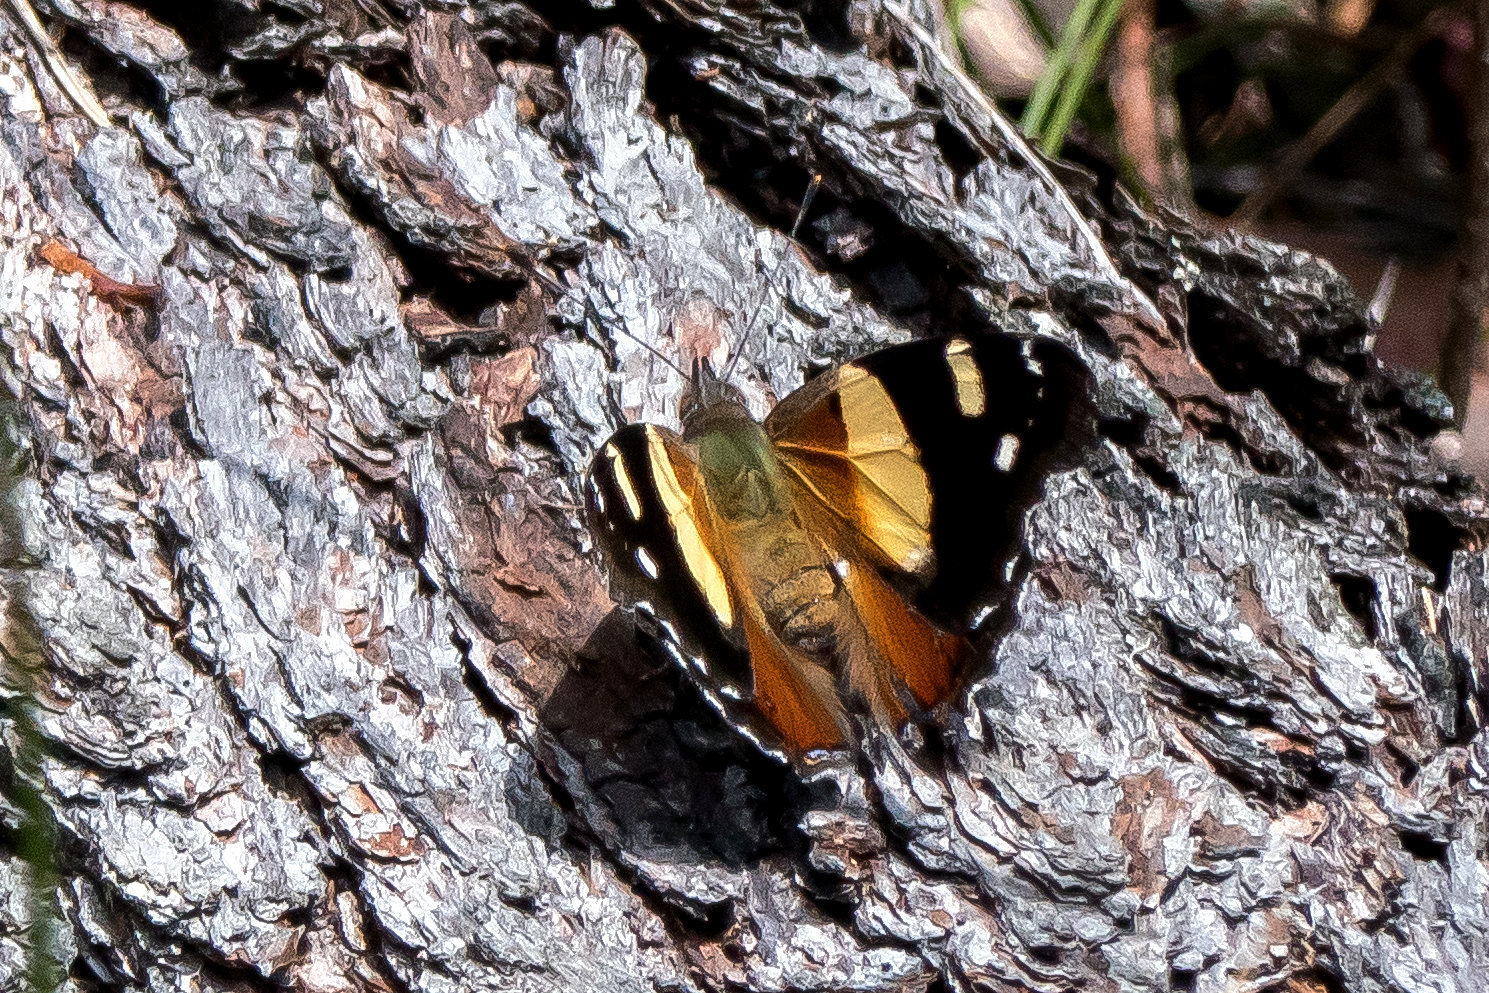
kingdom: Animalia
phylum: Arthropoda
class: Insecta
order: Lepidoptera
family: Nymphalidae
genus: Vanessa
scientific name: Vanessa itea
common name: Yellow admiral
